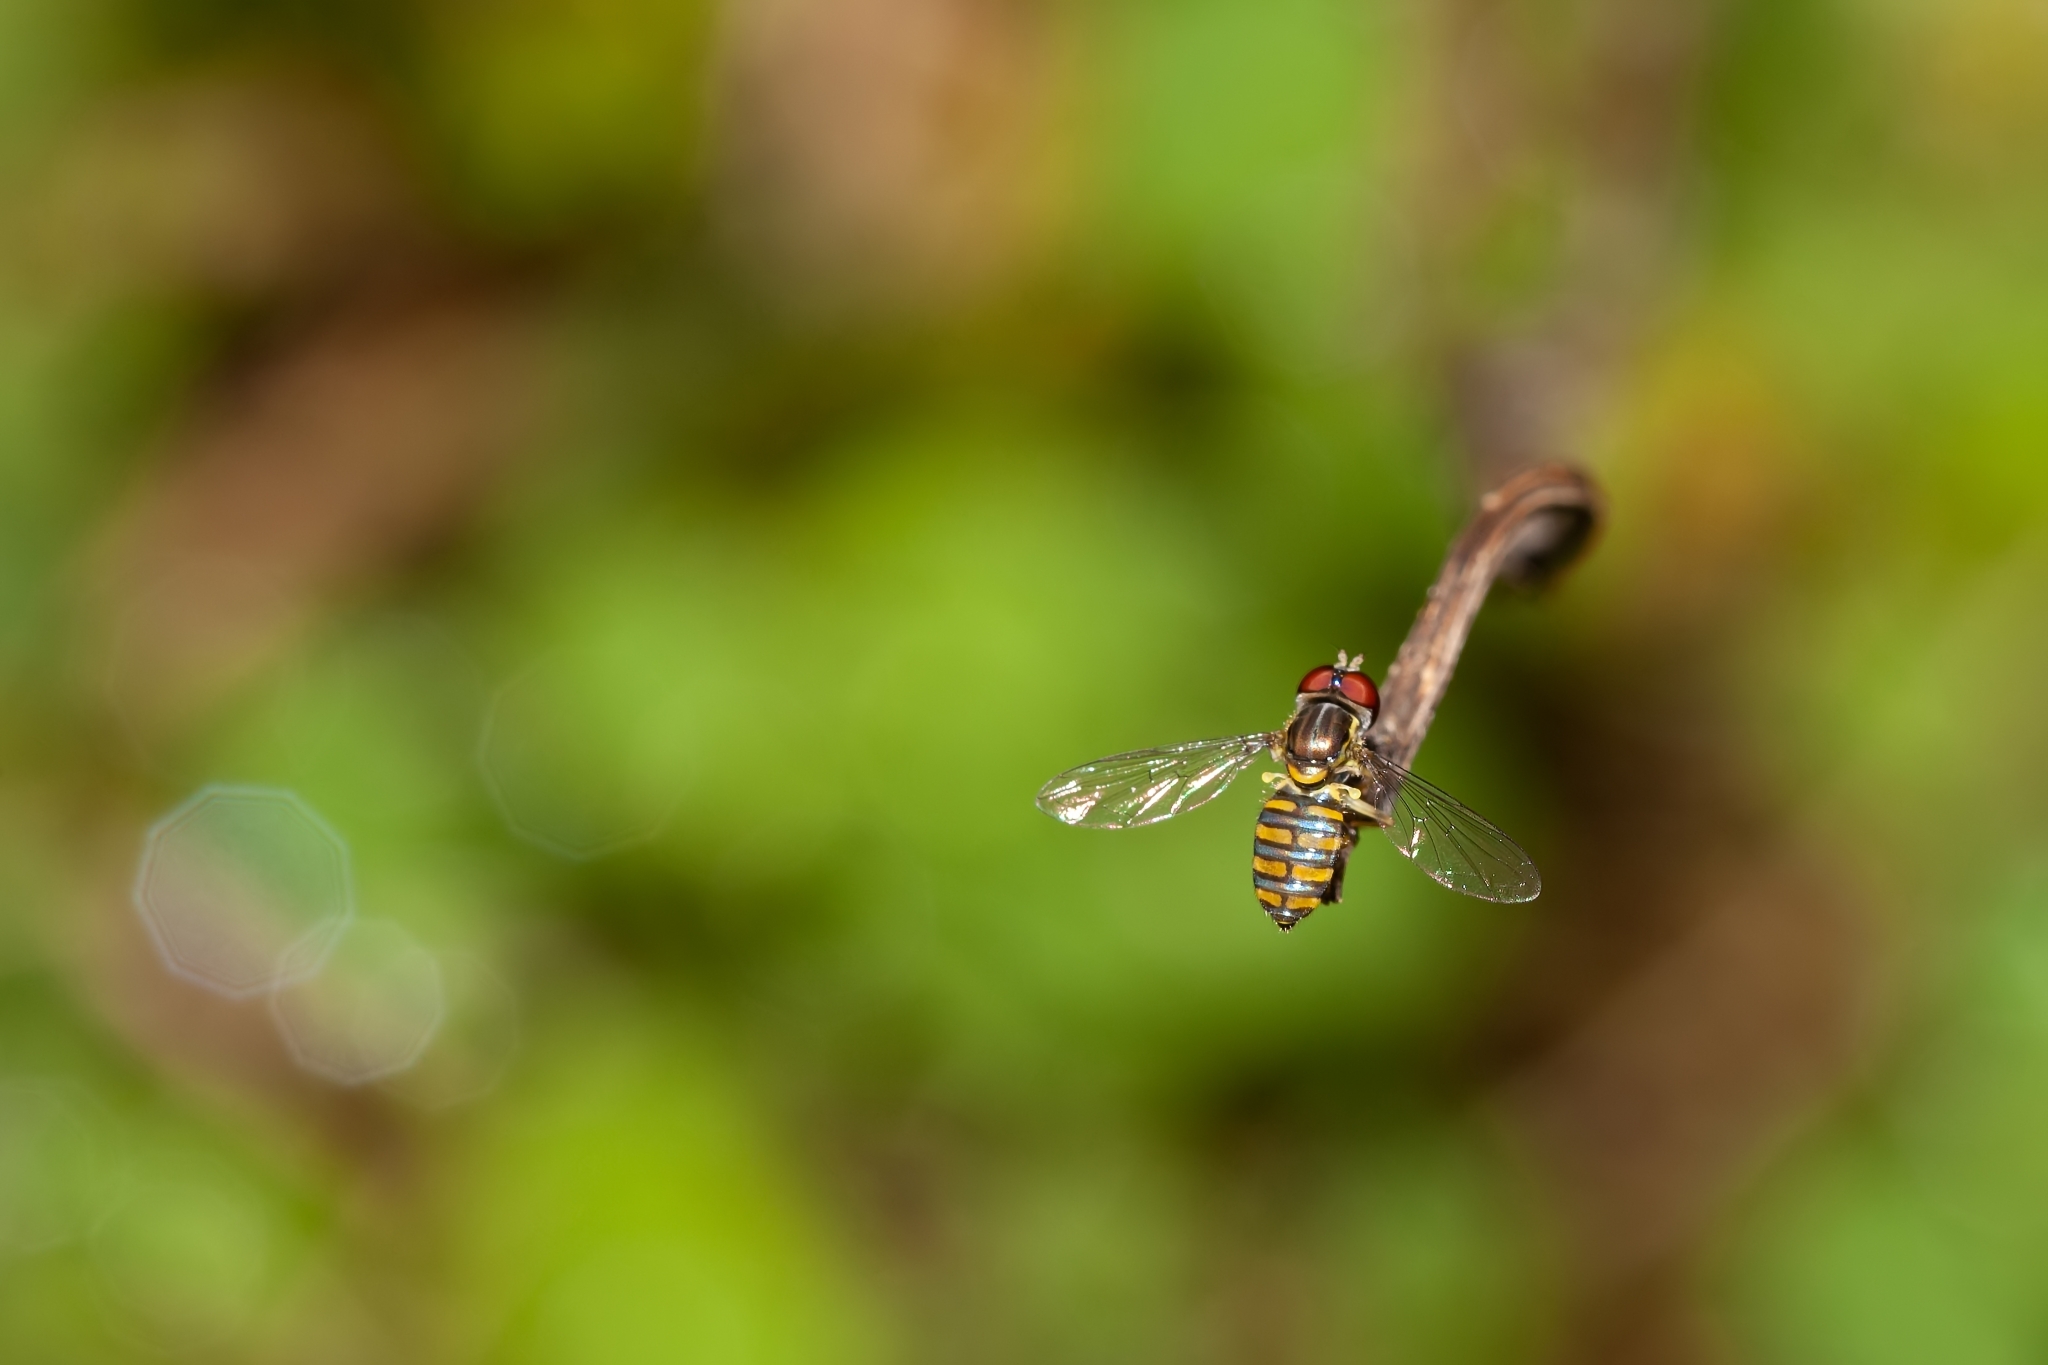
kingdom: Animalia
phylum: Arthropoda
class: Insecta
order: Diptera
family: Syrphidae
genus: Toxomerus
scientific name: Toxomerus verticalis
